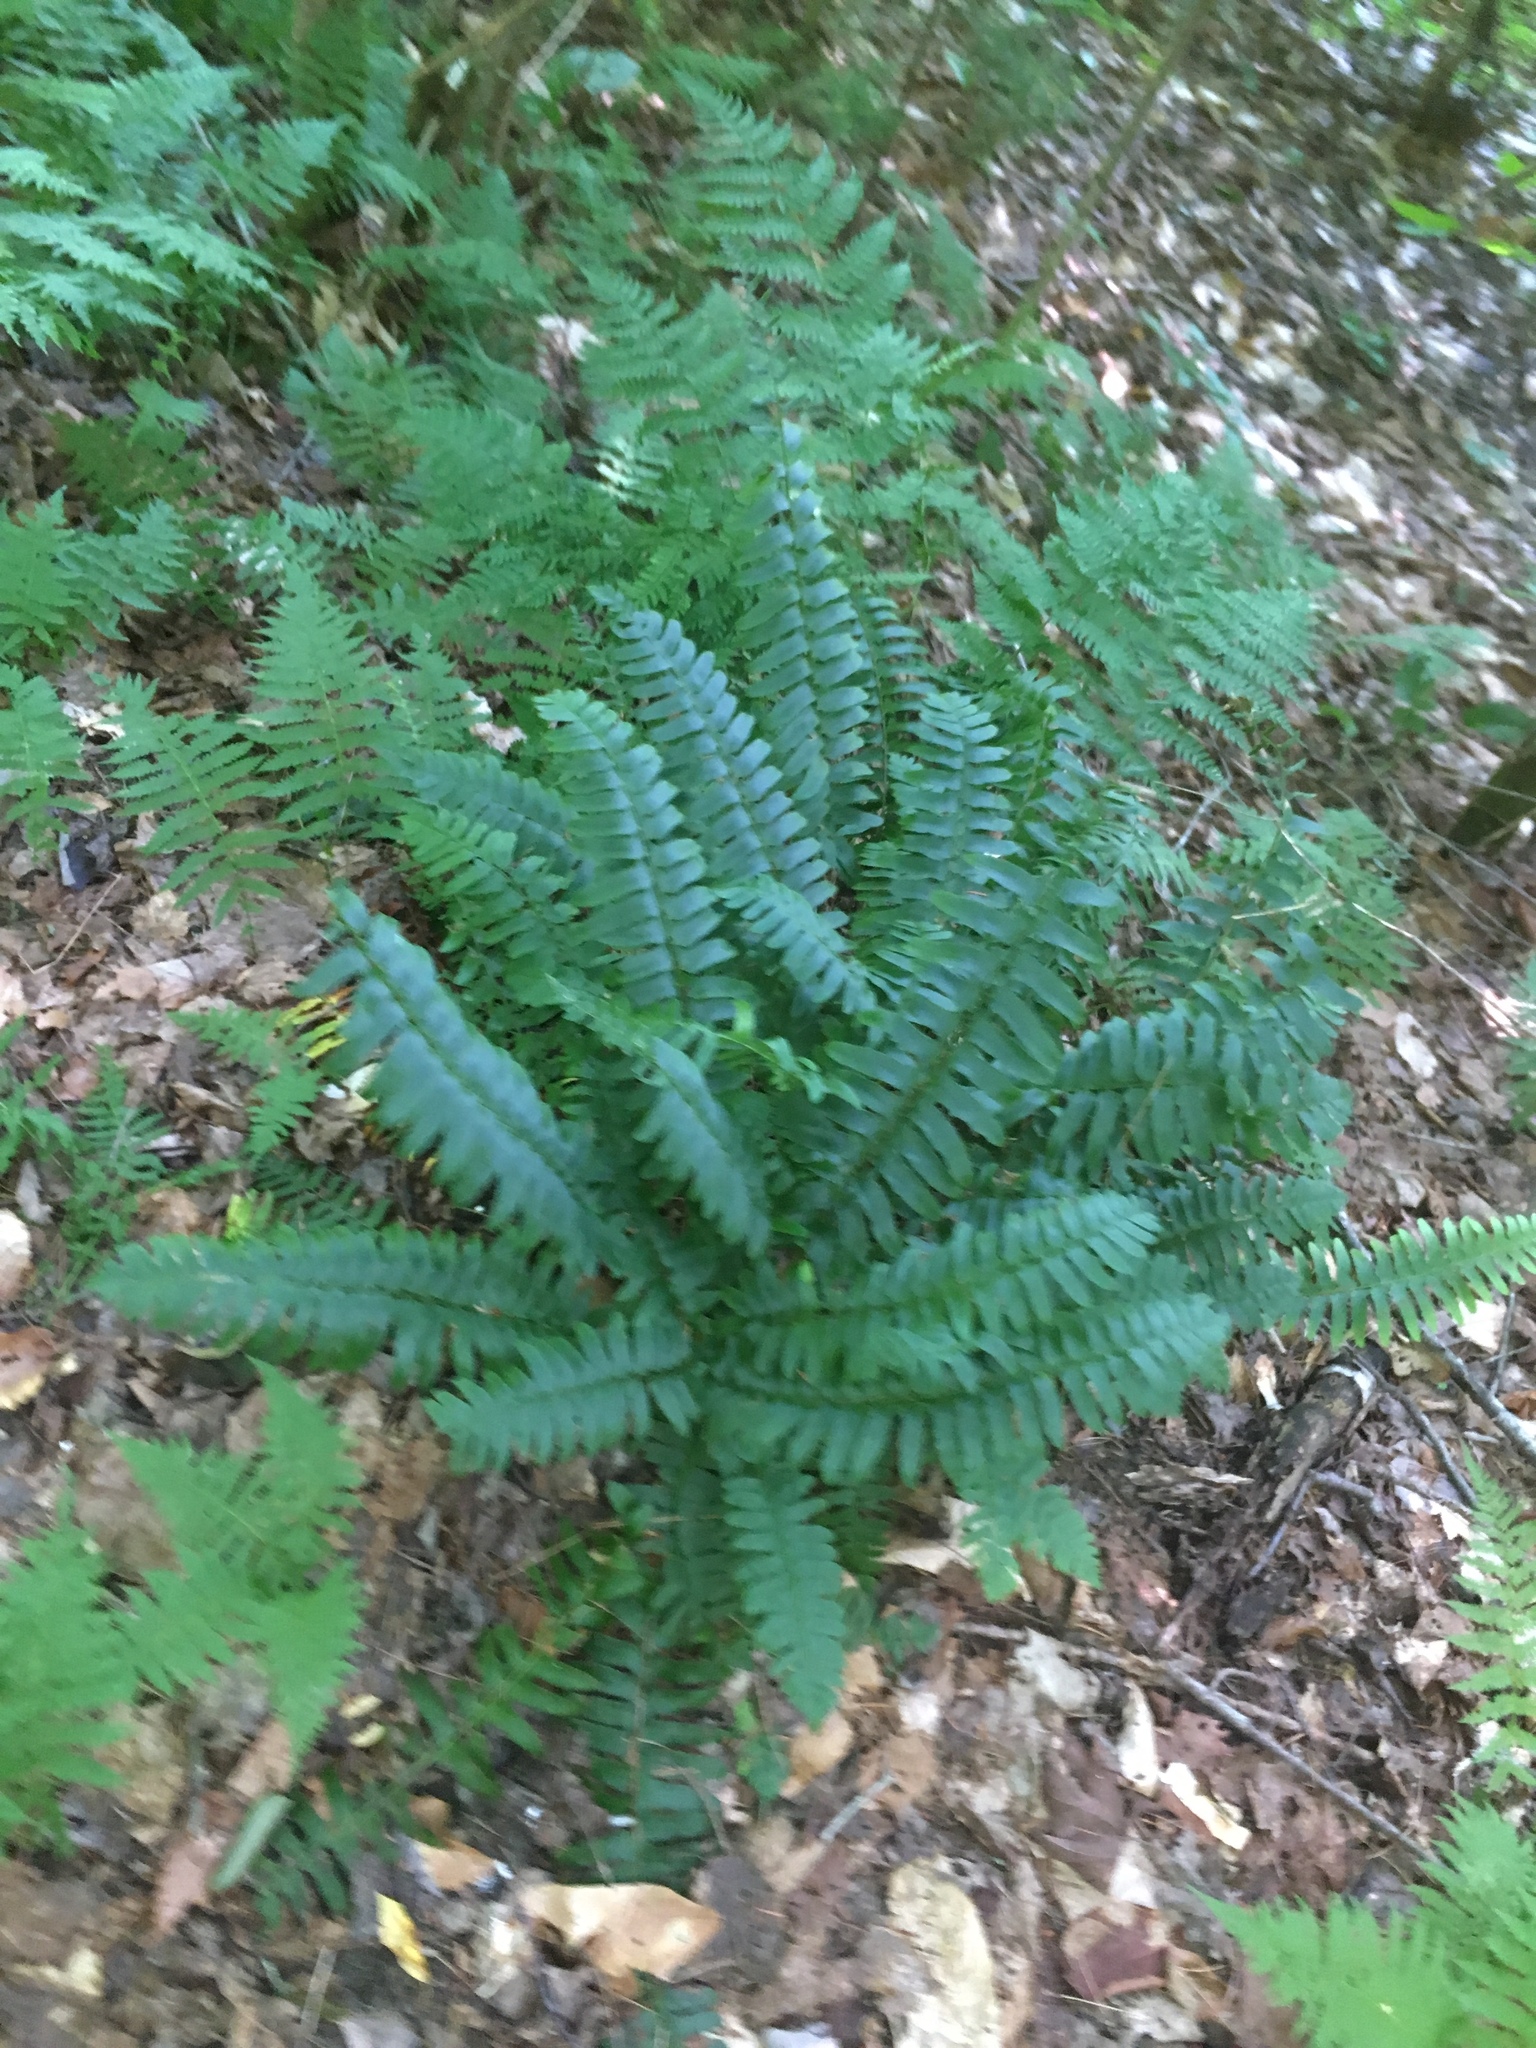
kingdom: Plantae
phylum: Tracheophyta
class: Polypodiopsida
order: Polypodiales
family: Dryopteridaceae
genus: Polystichum
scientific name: Polystichum acrostichoides
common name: Christmas fern
